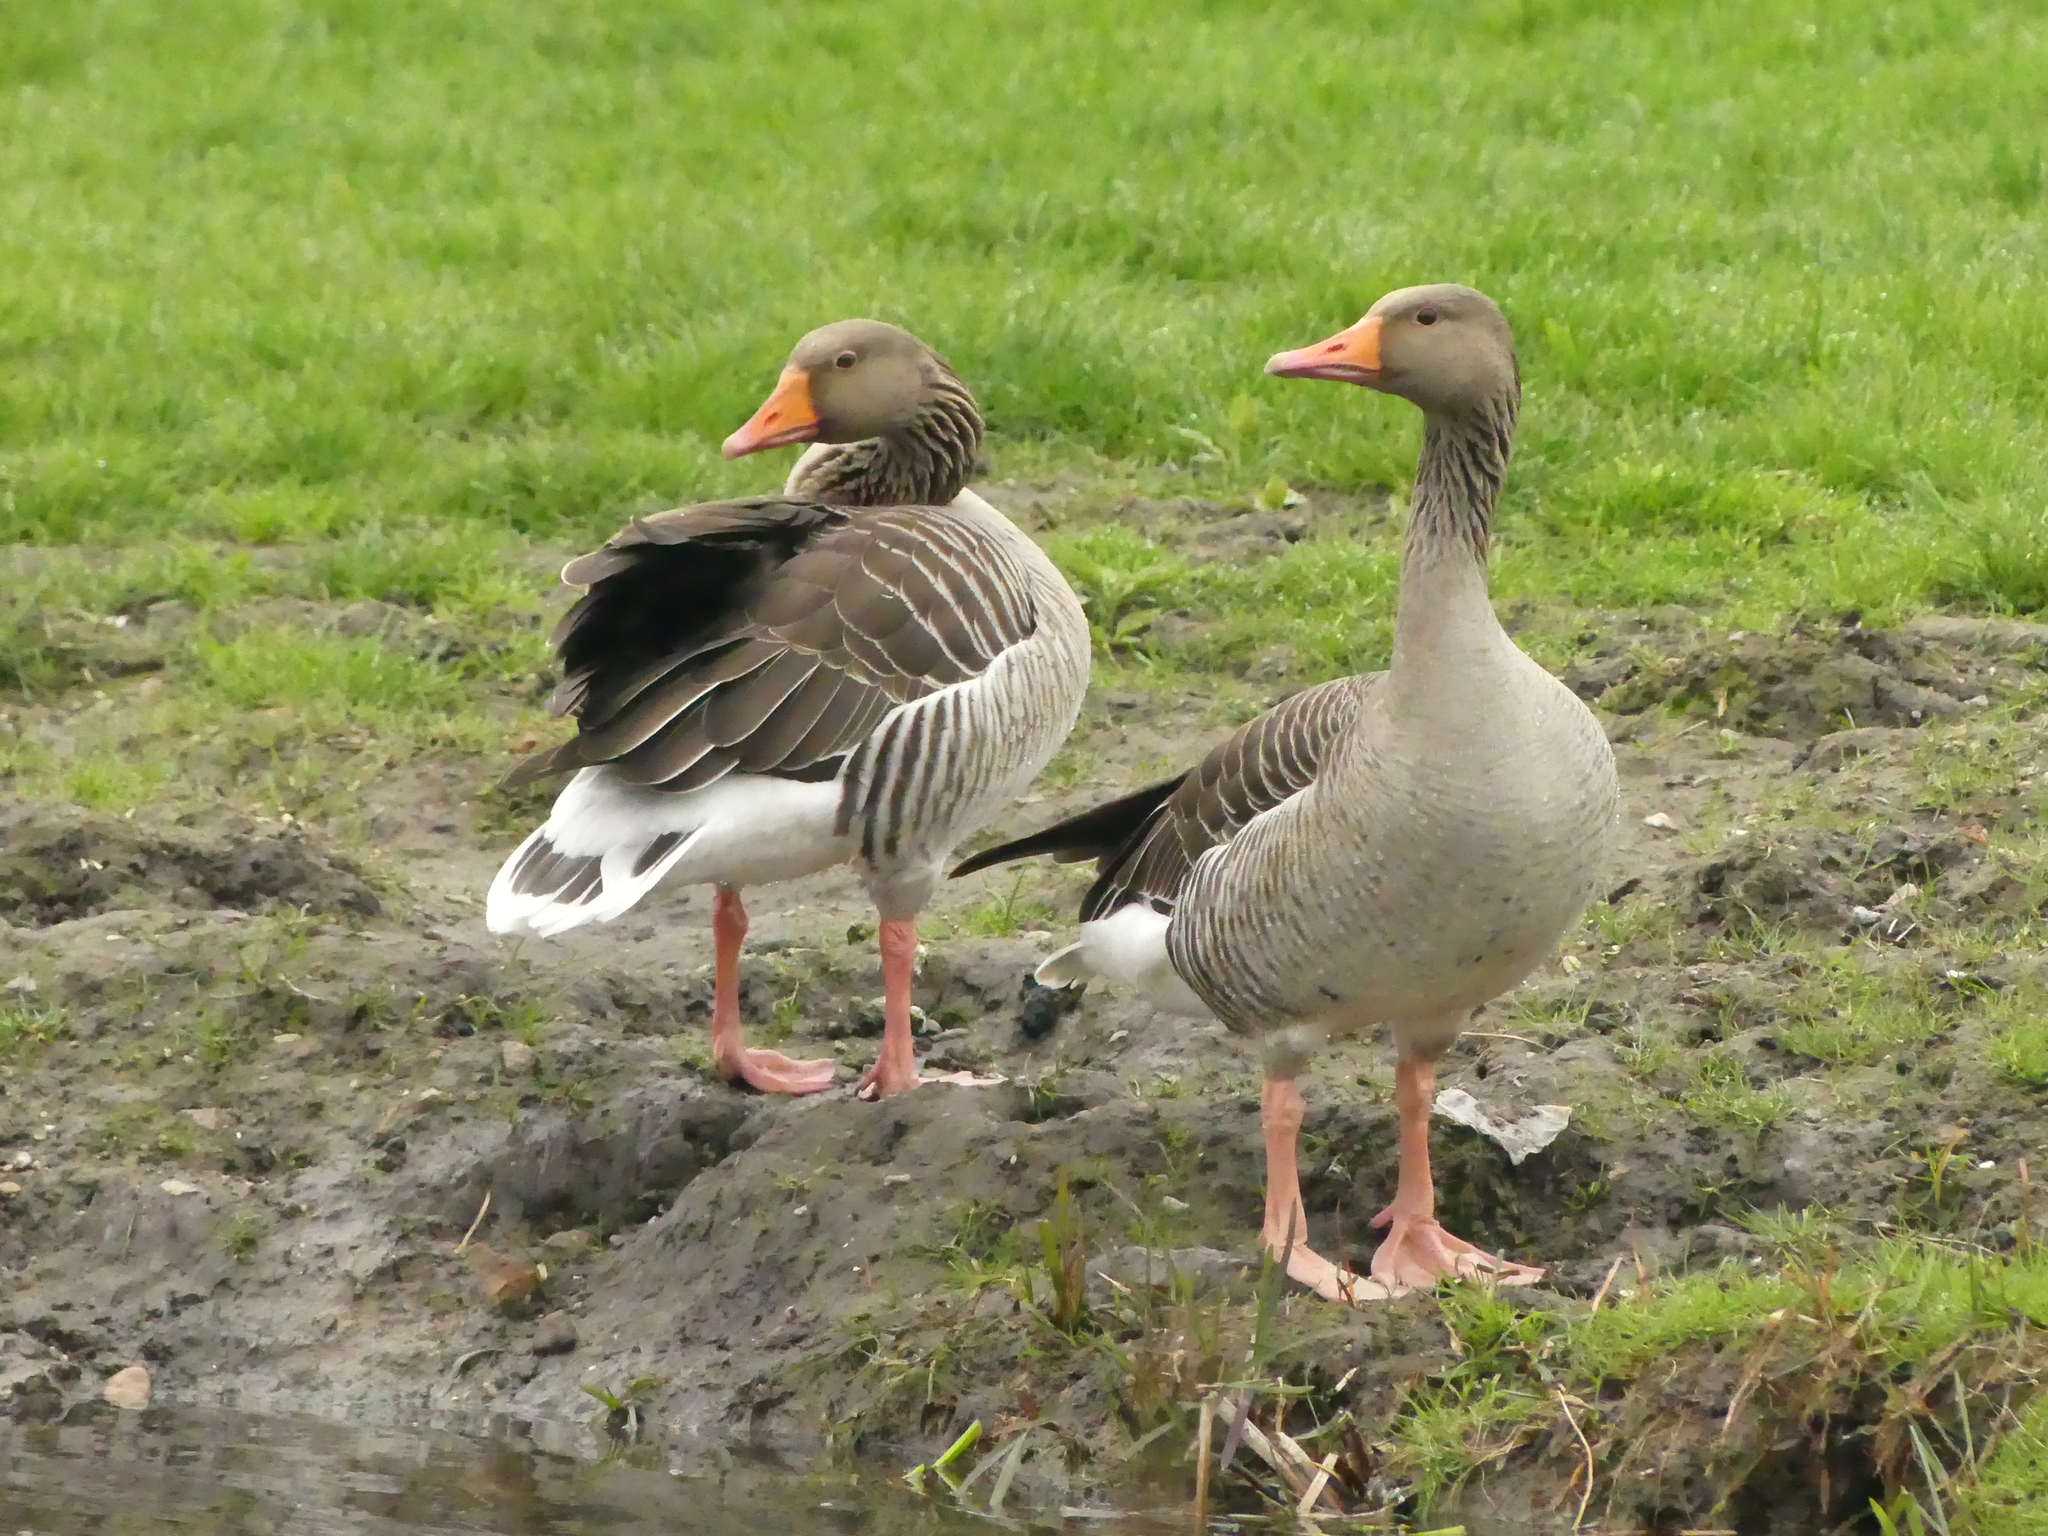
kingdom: Animalia
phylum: Chordata
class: Aves
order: Anseriformes
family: Anatidae
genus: Anser
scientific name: Anser anser
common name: Greylag goose
